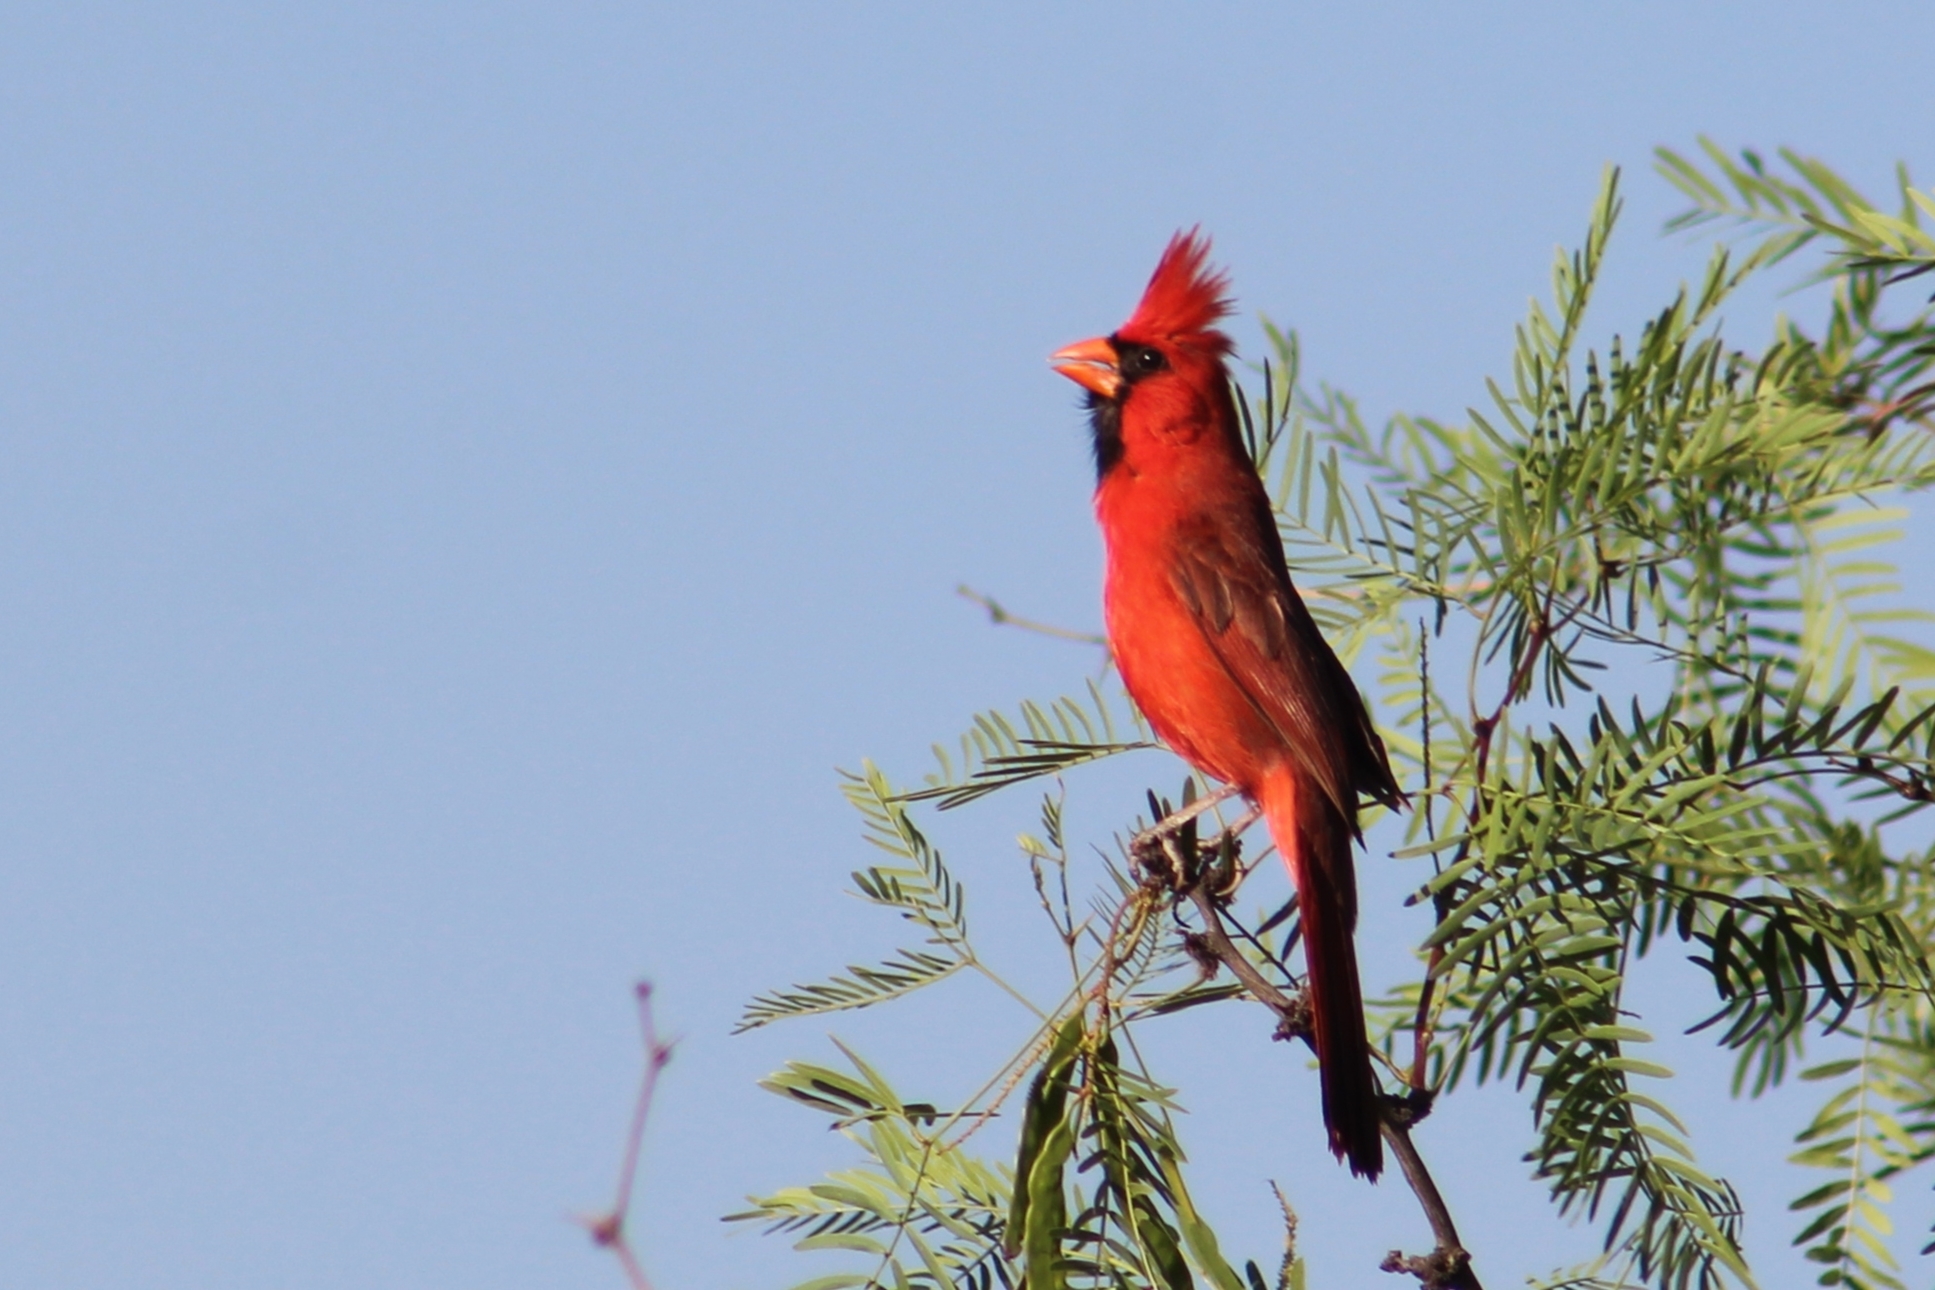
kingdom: Animalia
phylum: Chordata
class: Aves
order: Passeriformes
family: Cardinalidae
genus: Cardinalis
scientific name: Cardinalis cardinalis
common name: Northern cardinal
